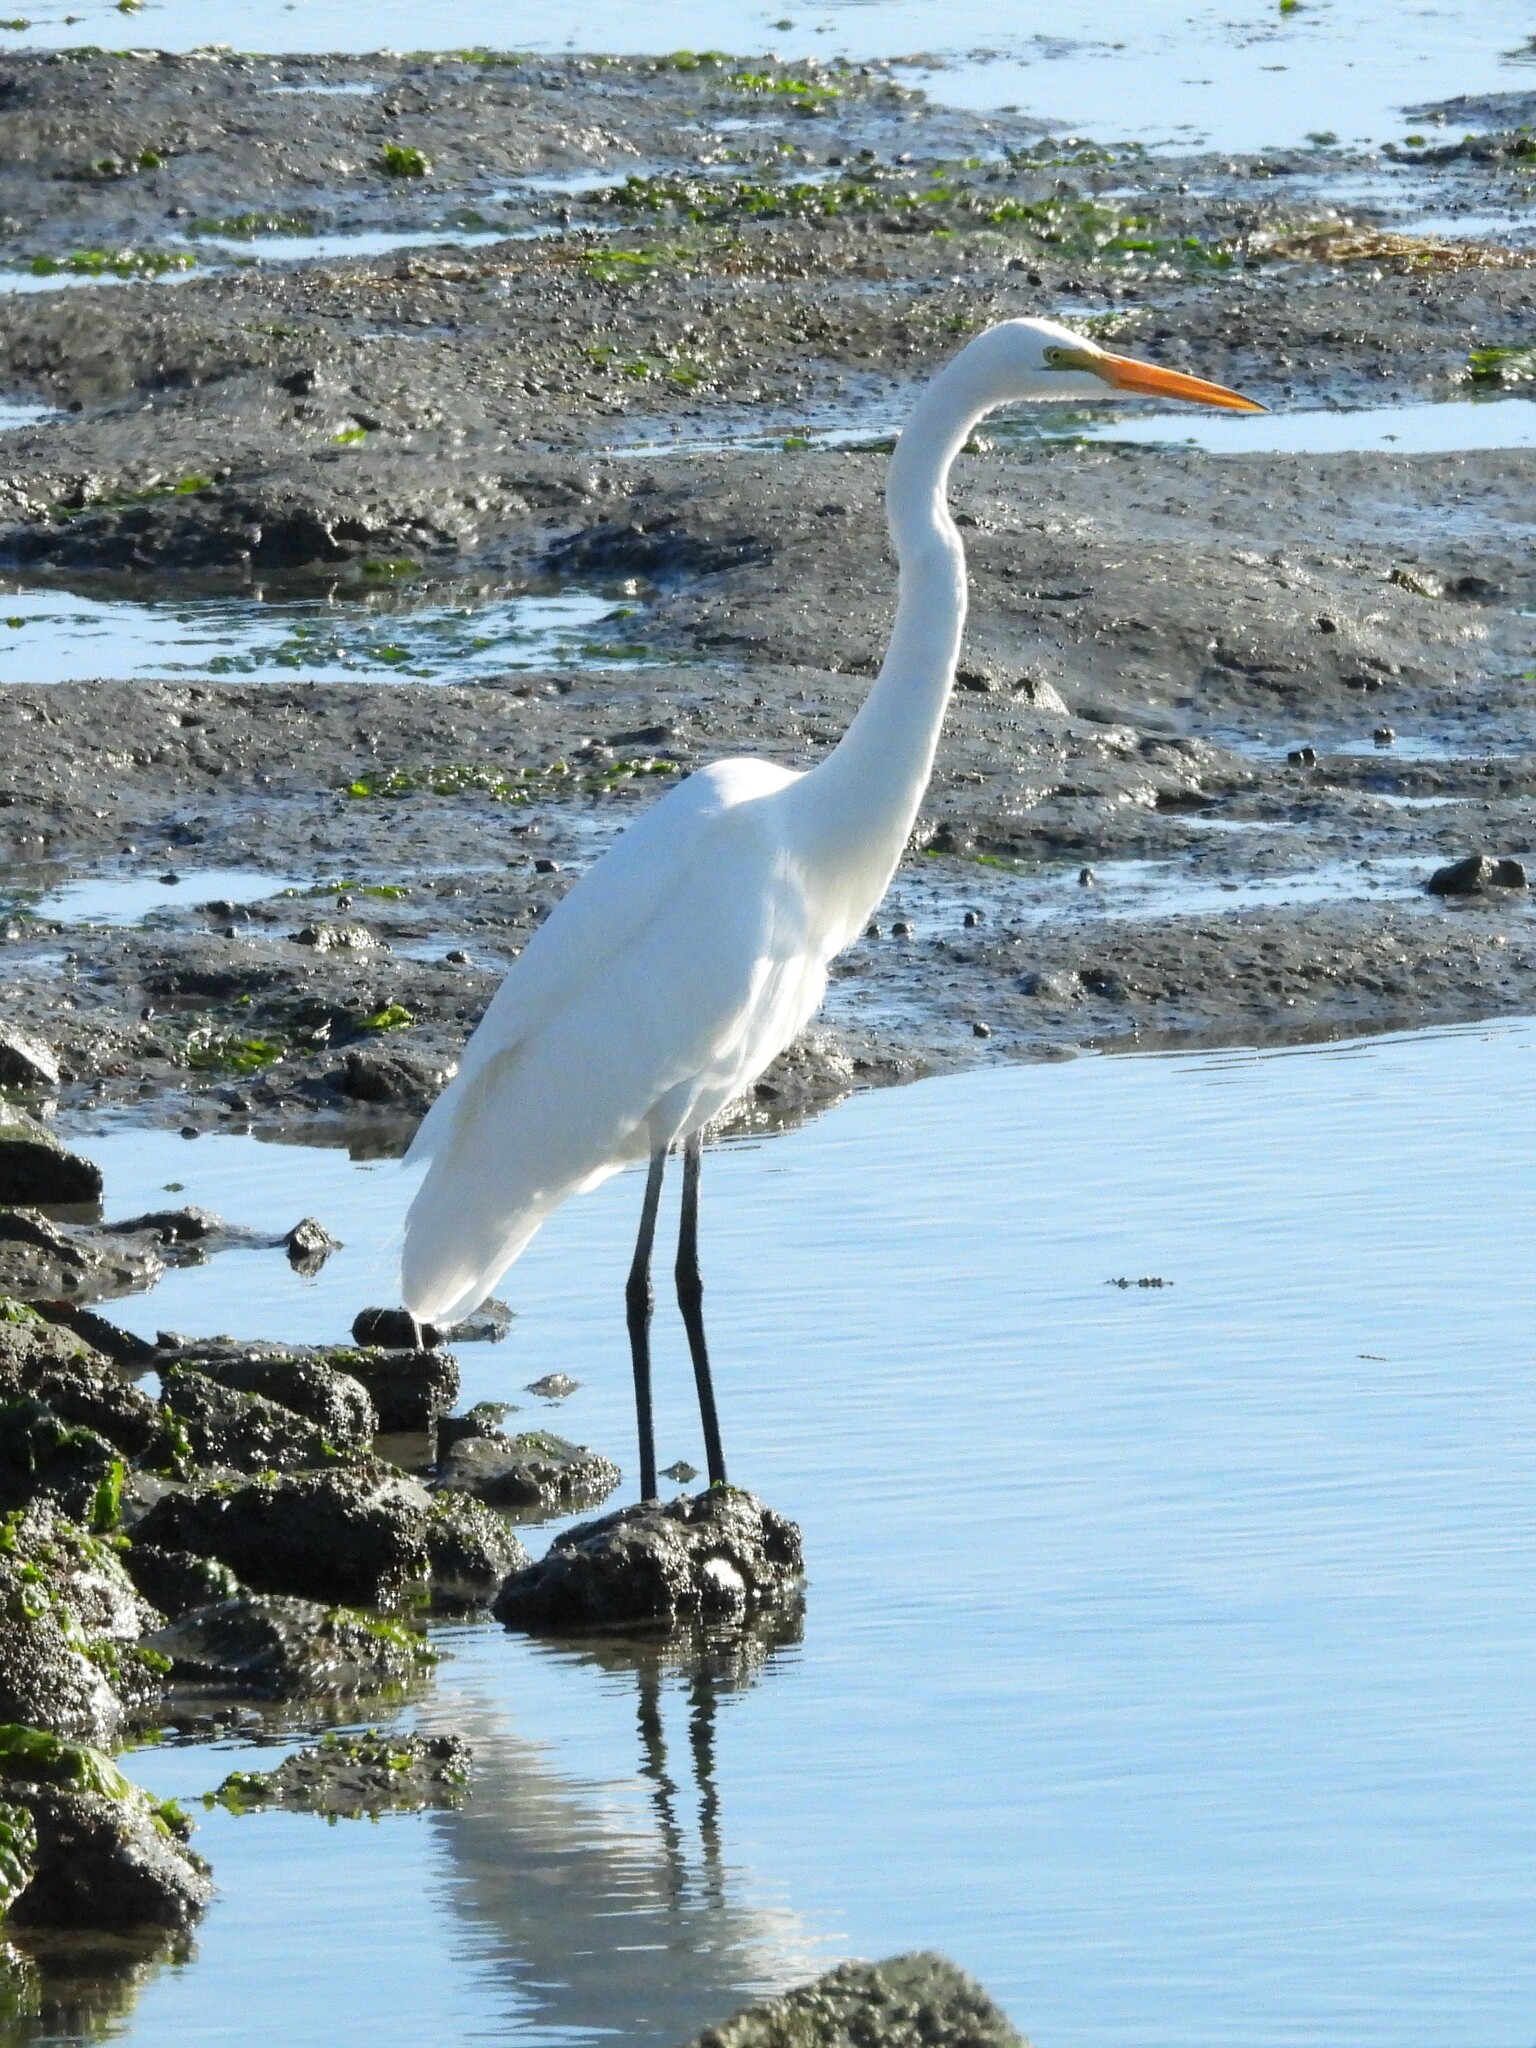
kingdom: Animalia
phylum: Chordata
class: Aves
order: Pelecaniformes
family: Ardeidae
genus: Ardea
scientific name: Ardea alba
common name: Great egret
